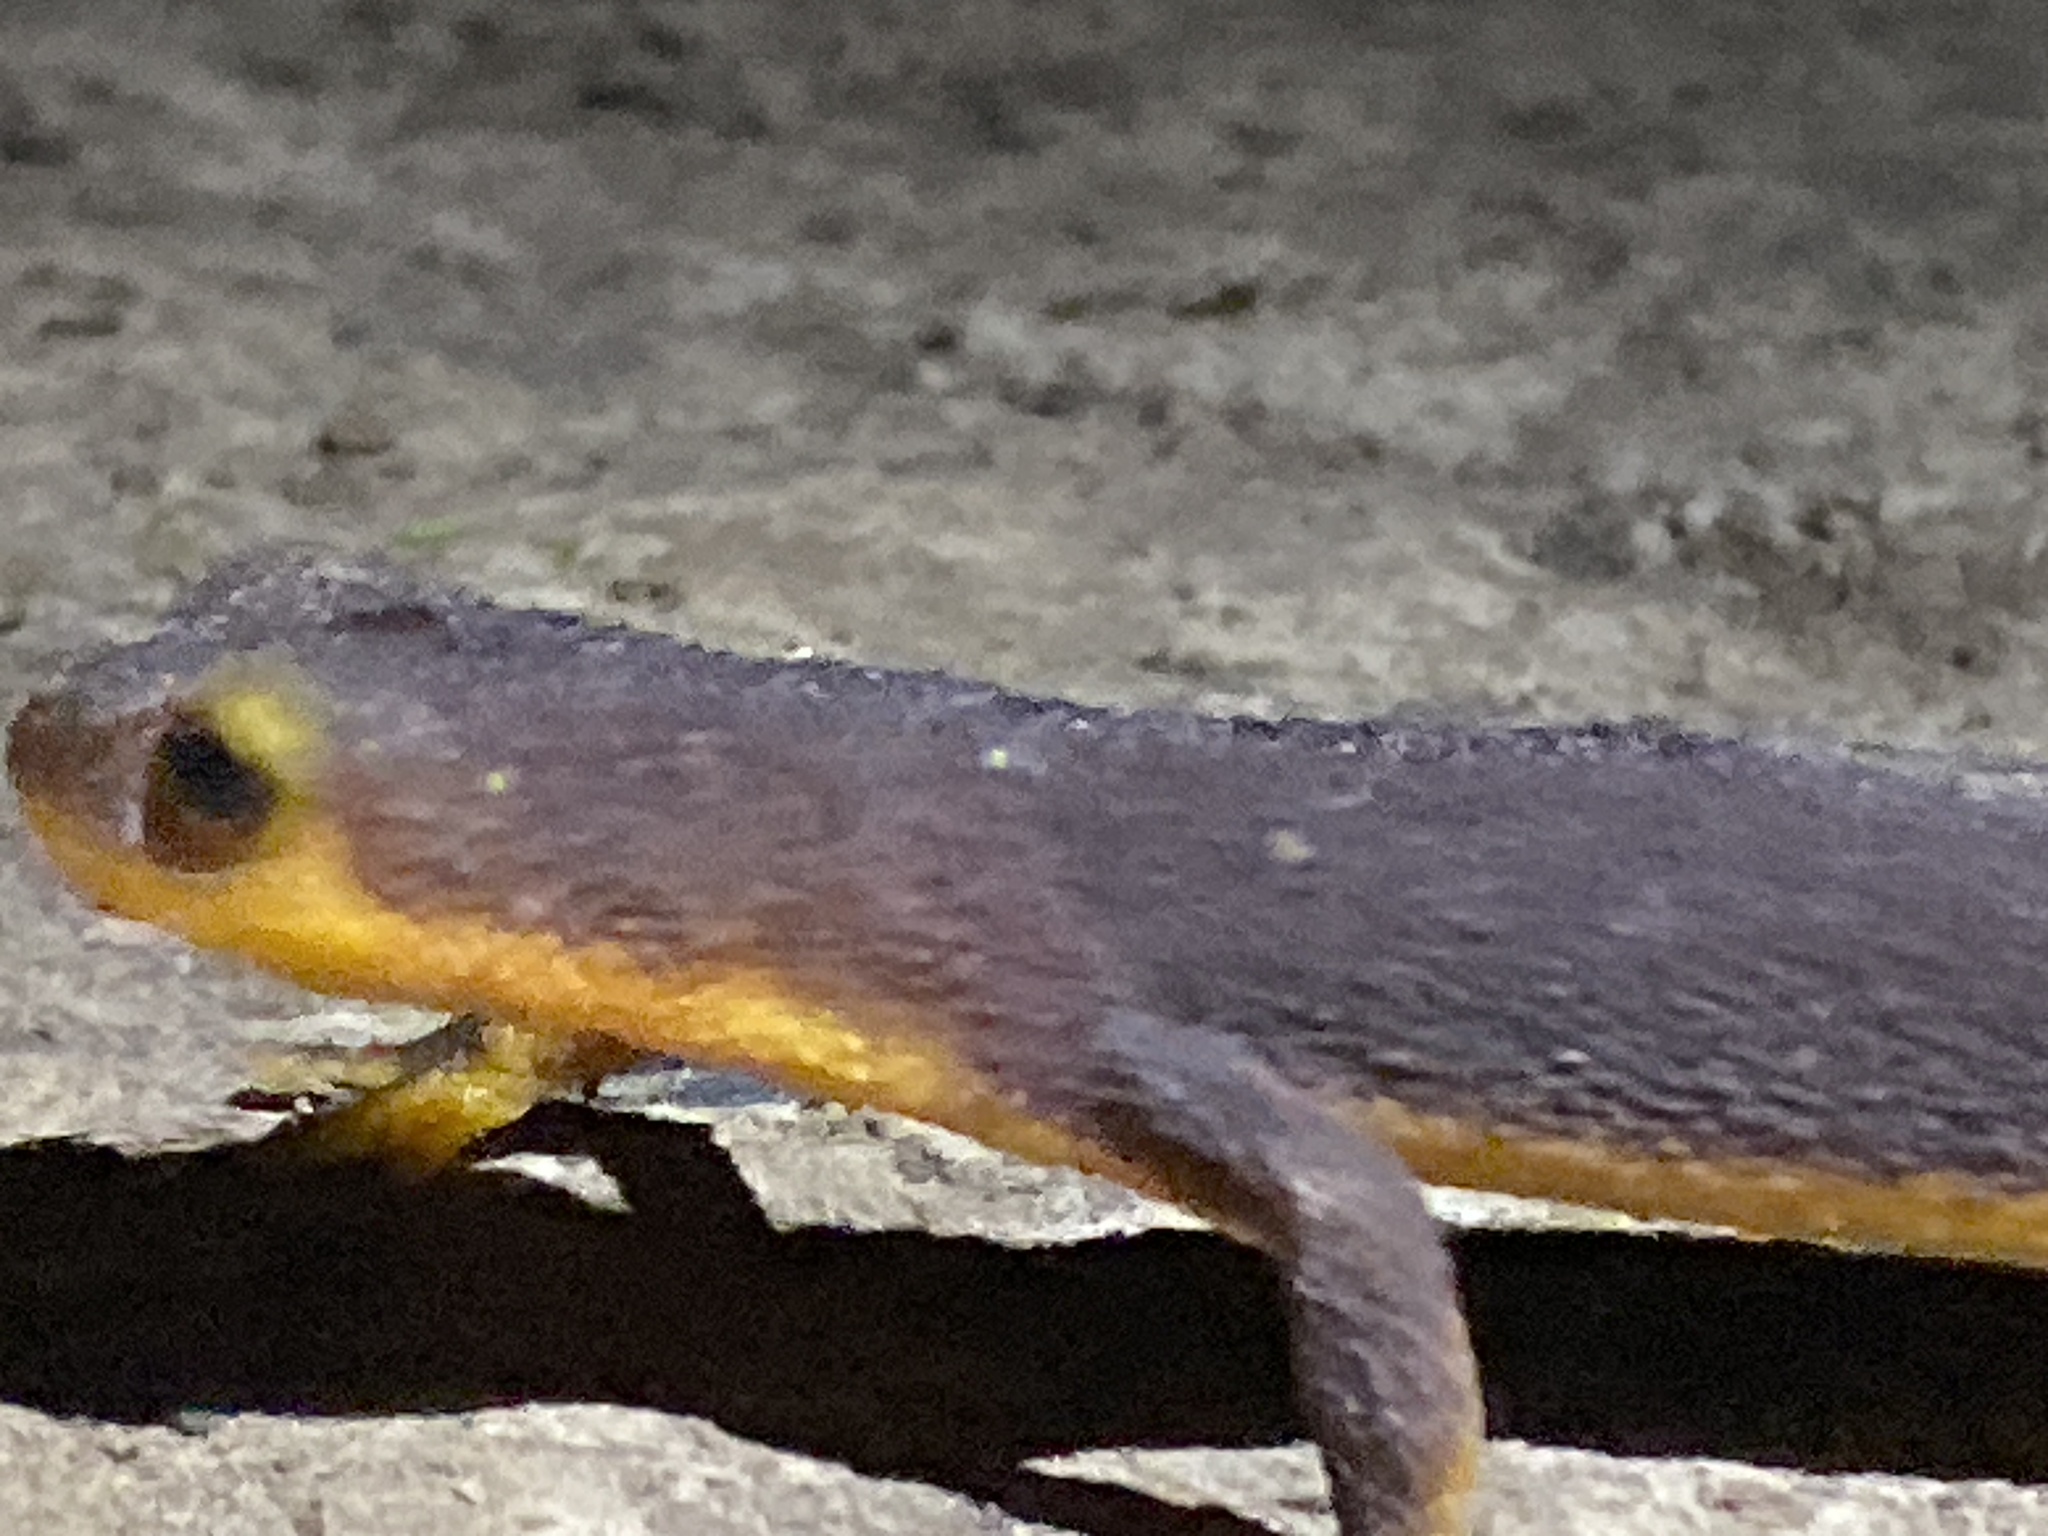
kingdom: Animalia
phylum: Chordata
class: Amphibia
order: Caudata
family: Salamandridae
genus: Taricha
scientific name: Taricha torosa
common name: California newt
